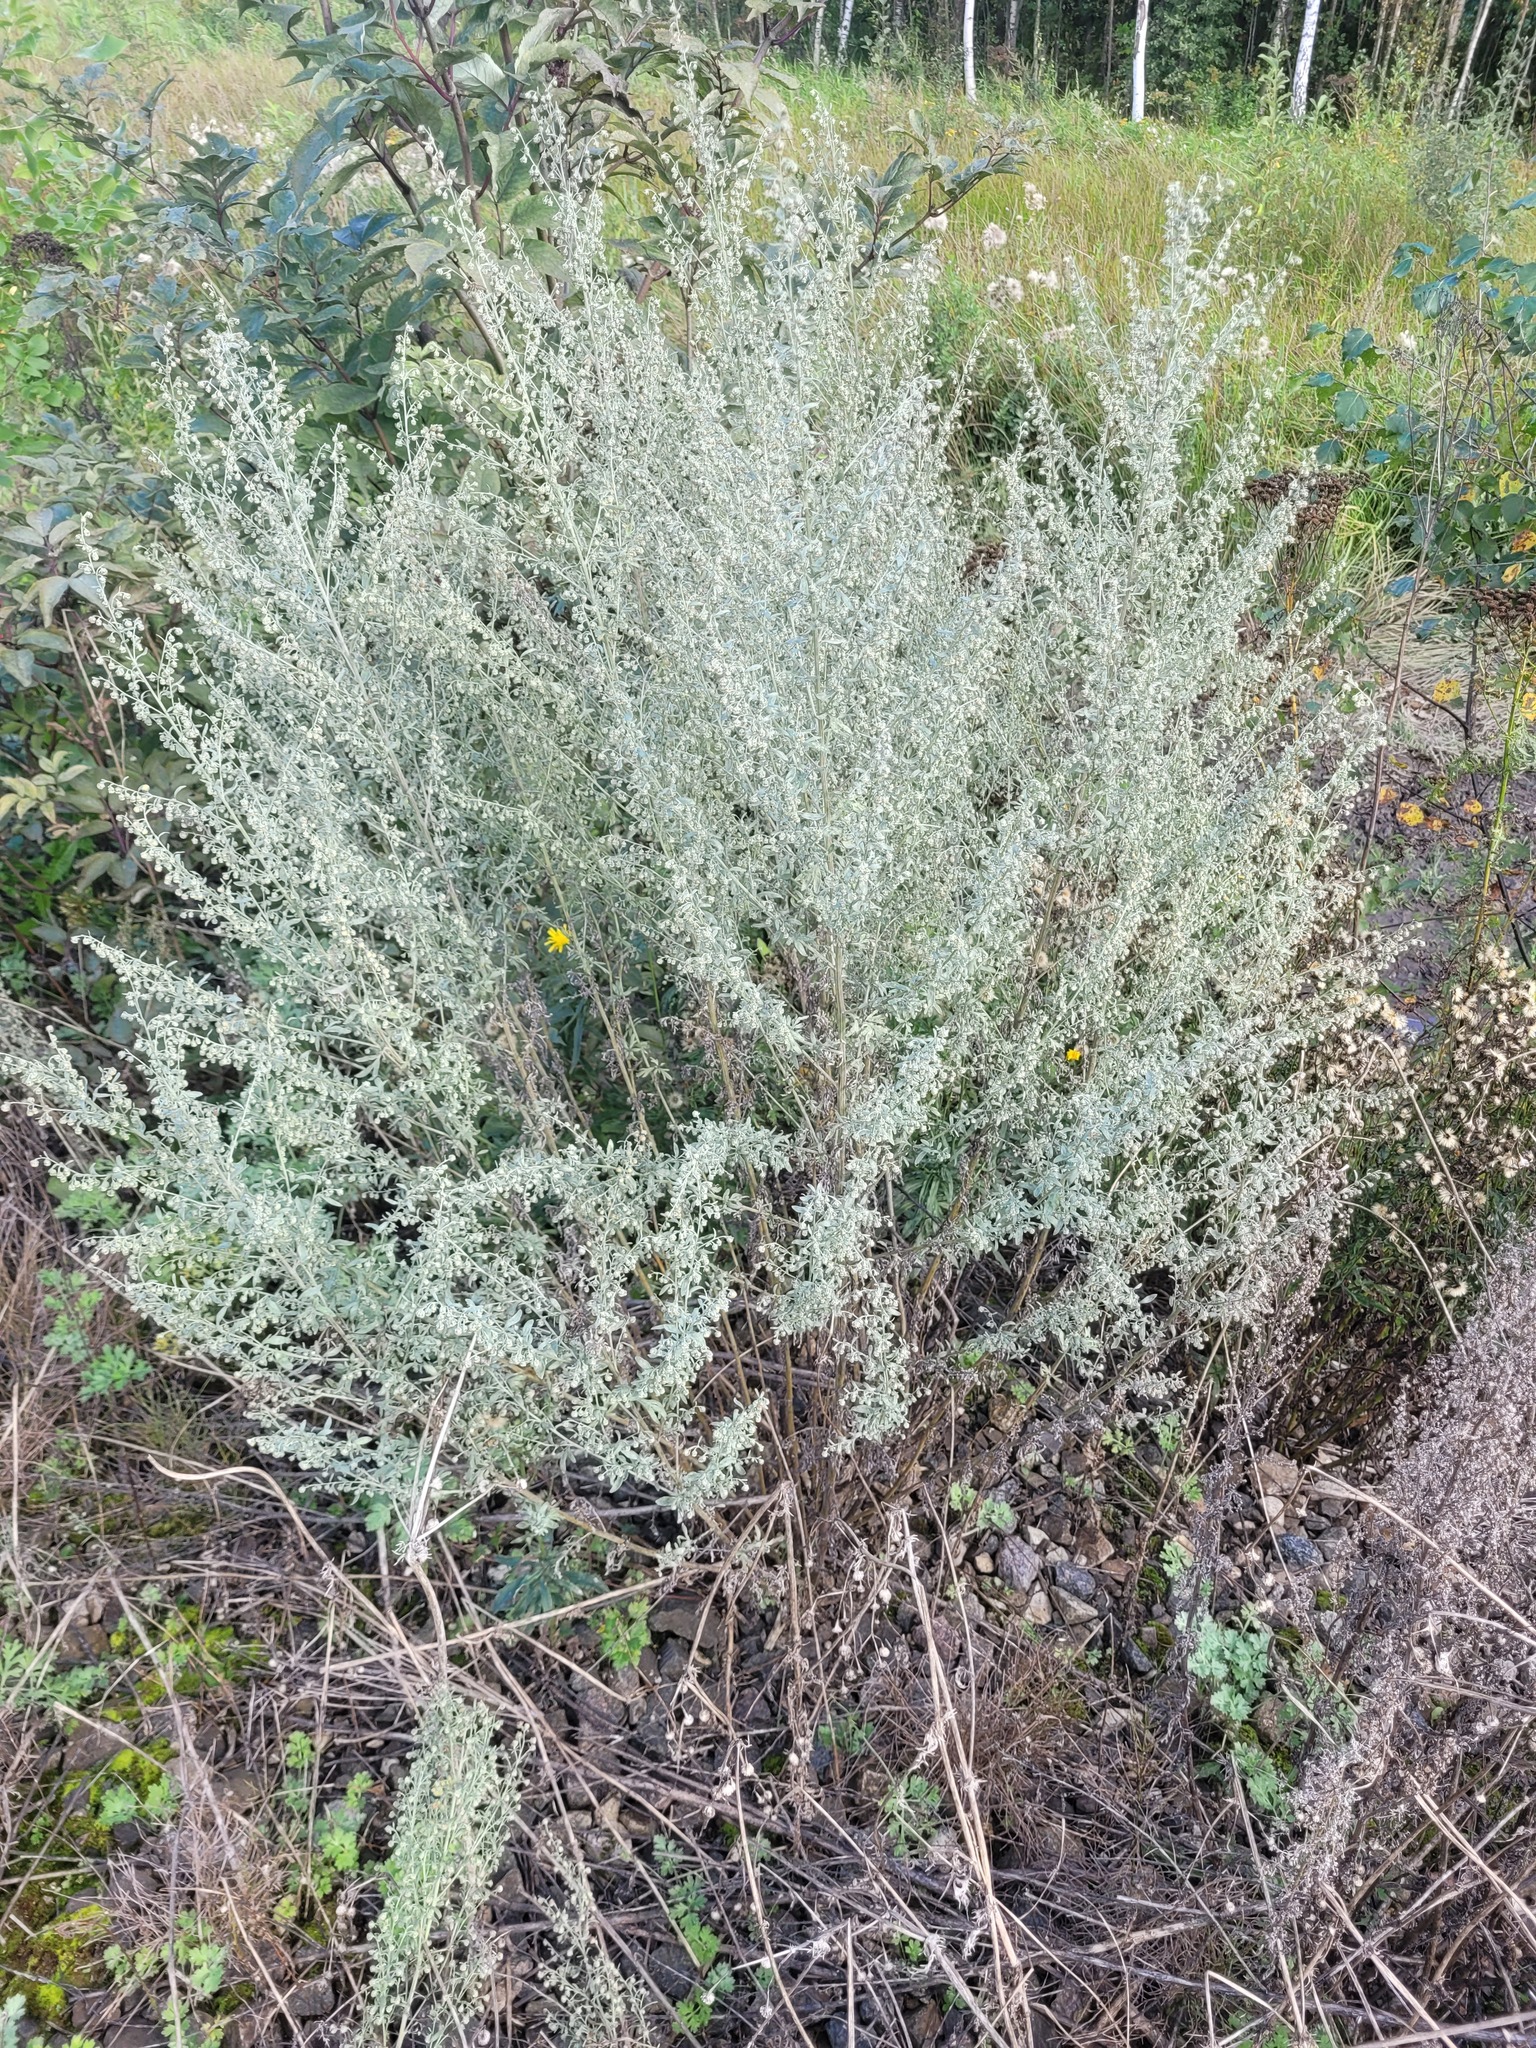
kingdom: Plantae
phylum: Tracheophyta
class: Magnoliopsida
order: Asterales
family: Asteraceae
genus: Artemisia
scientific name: Artemisia absinthium
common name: Wormwood
